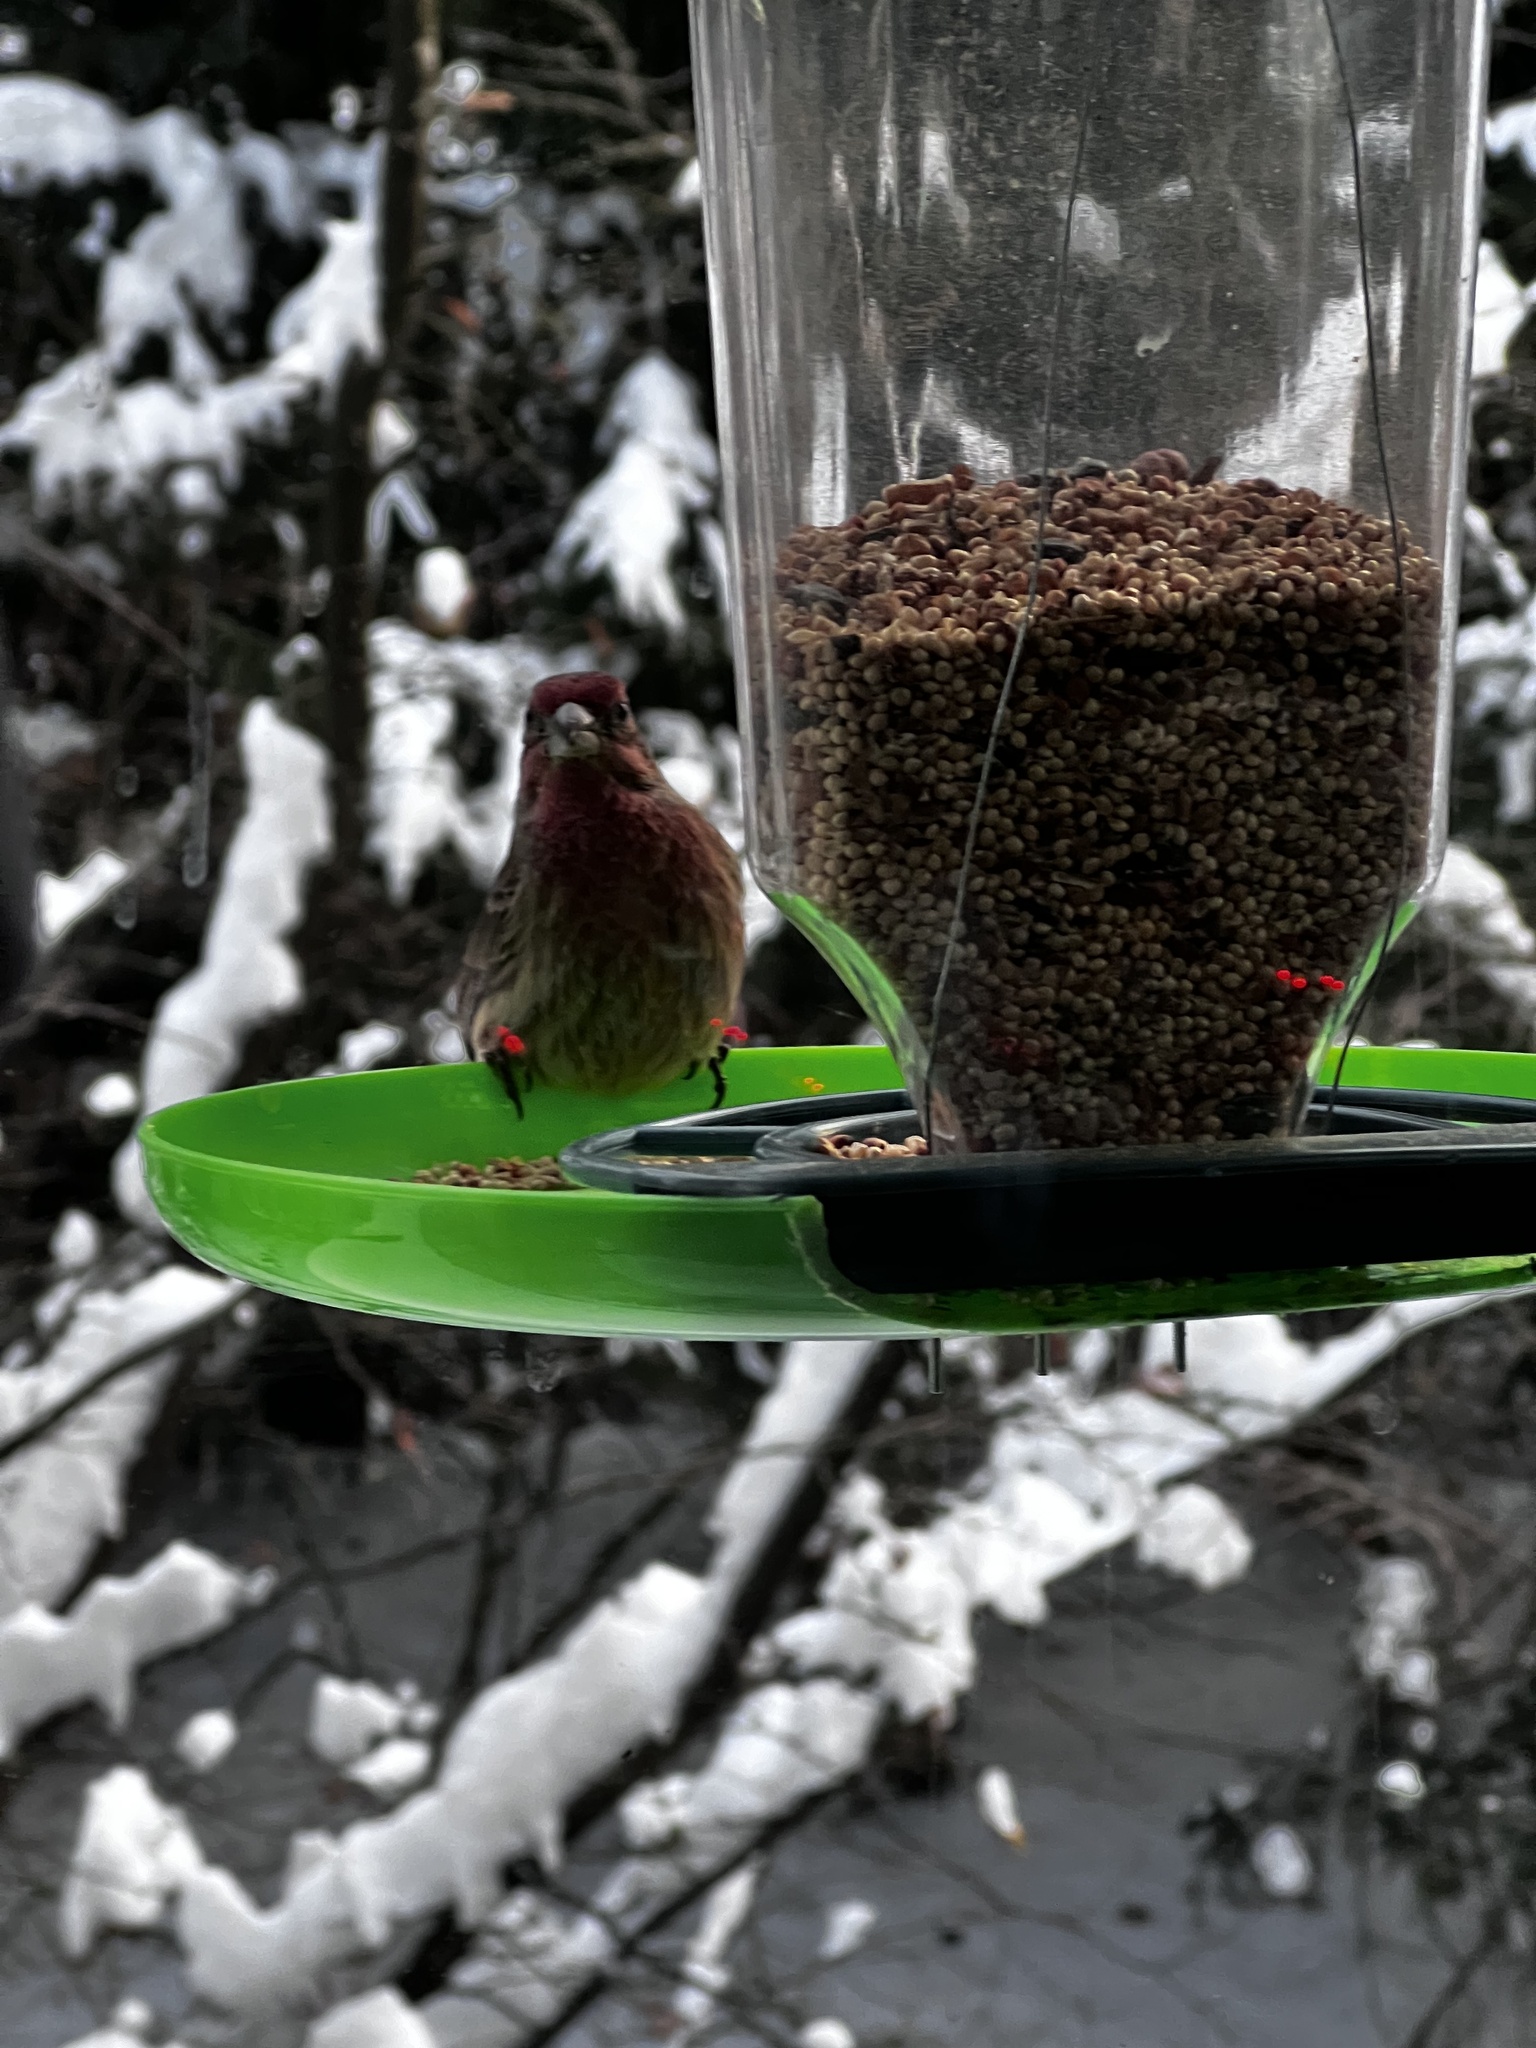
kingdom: Animalia
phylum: Chordata
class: Aves
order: Passeriformes
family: Fringillidae
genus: Haemorhous
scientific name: Haemorhous mexicanus
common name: House finch
